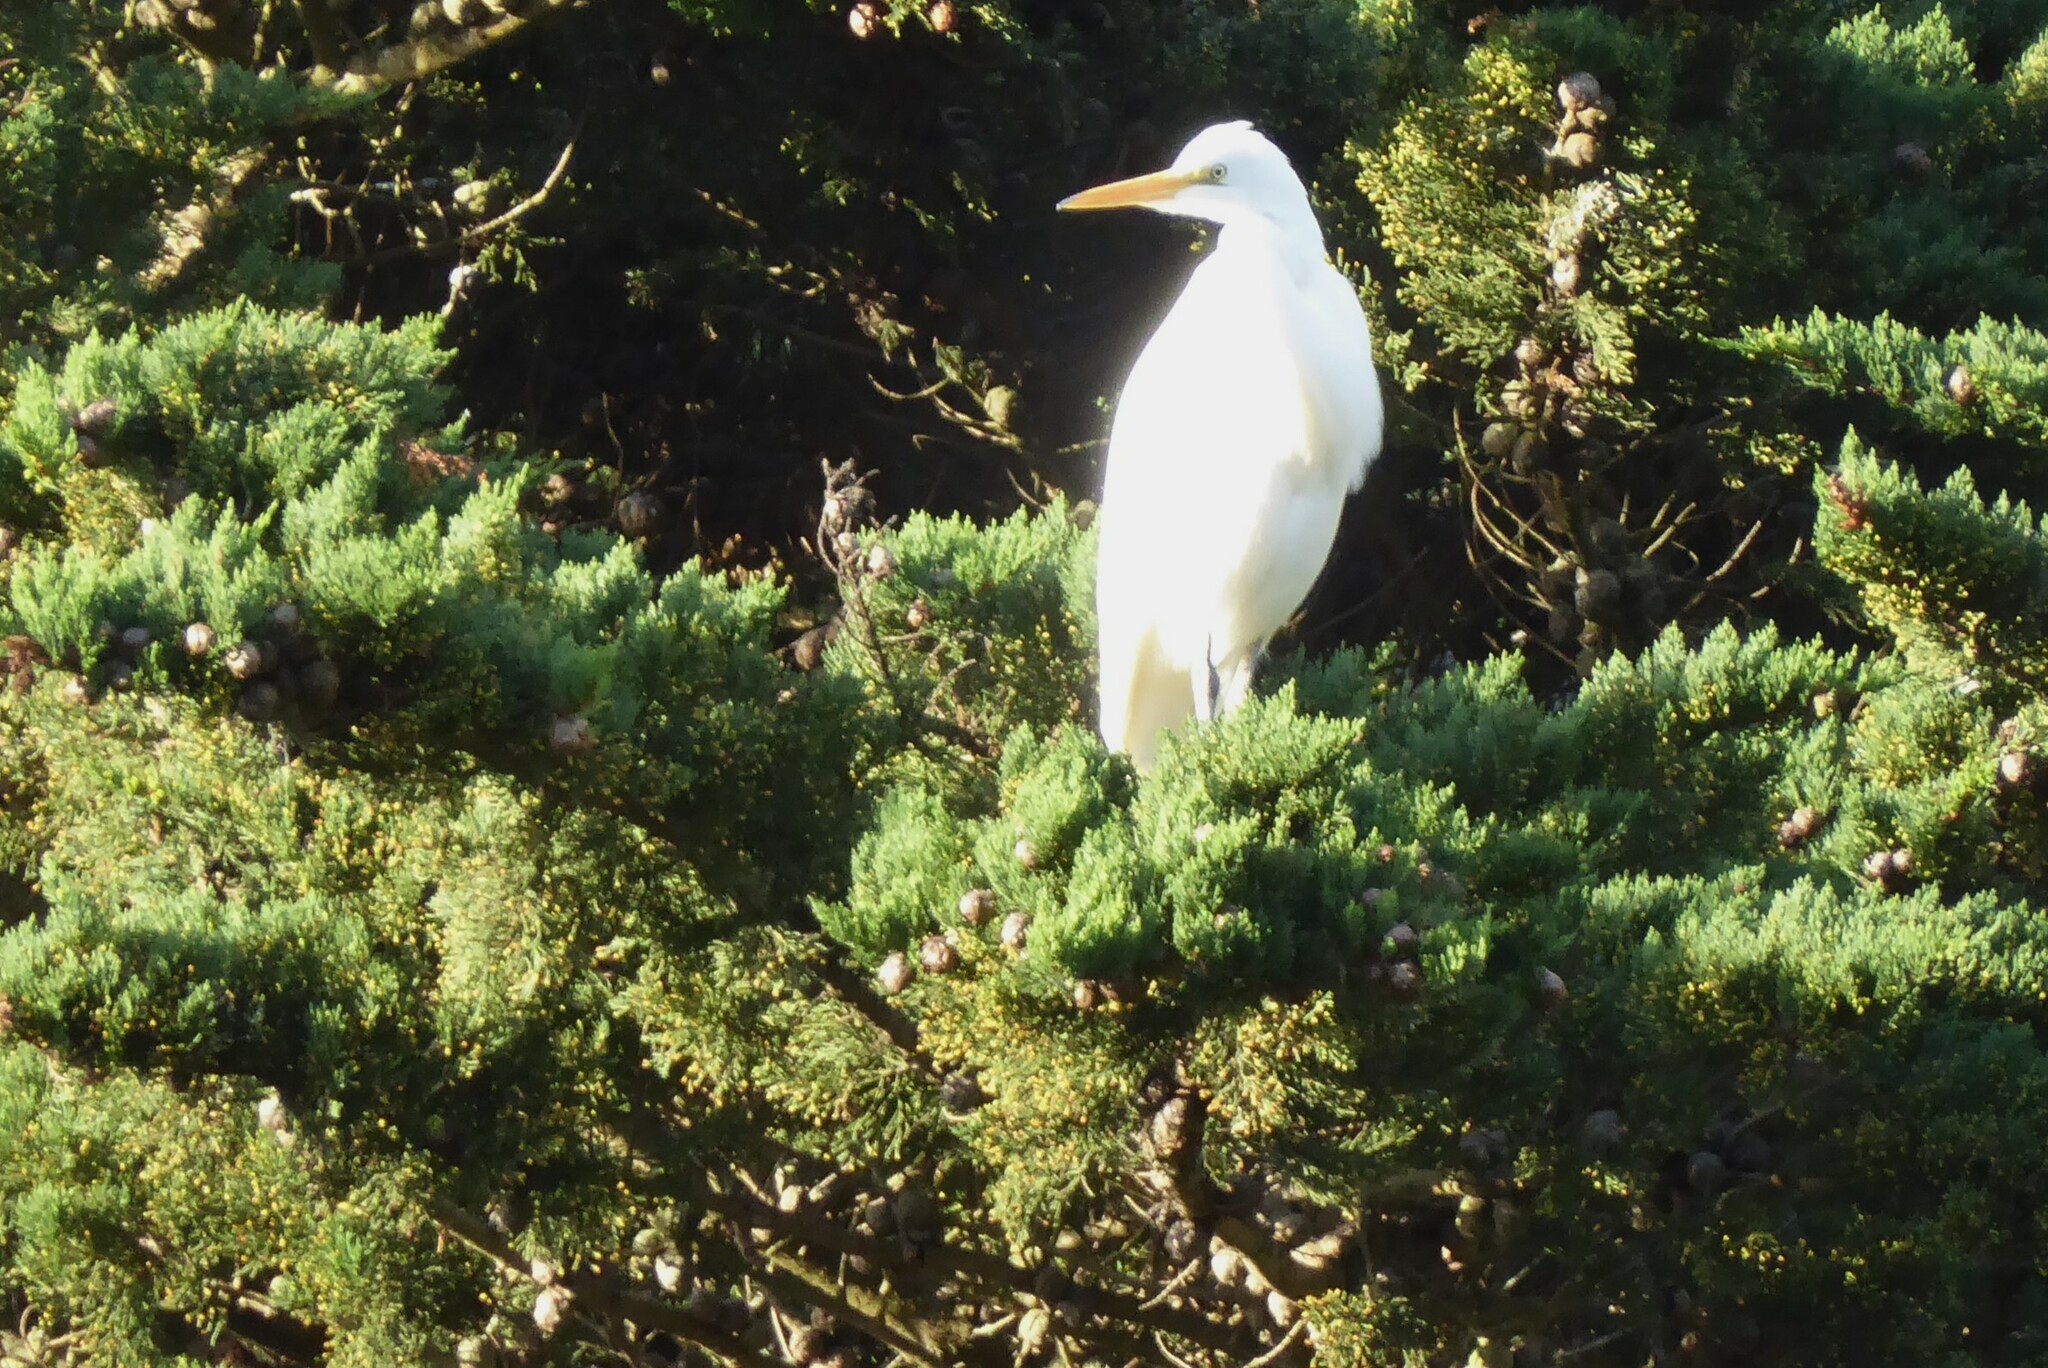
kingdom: Animalia
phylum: Chordata
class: Aves
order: Pelecaniformes
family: Ardeidae
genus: Ardea
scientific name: Ardea modesta
